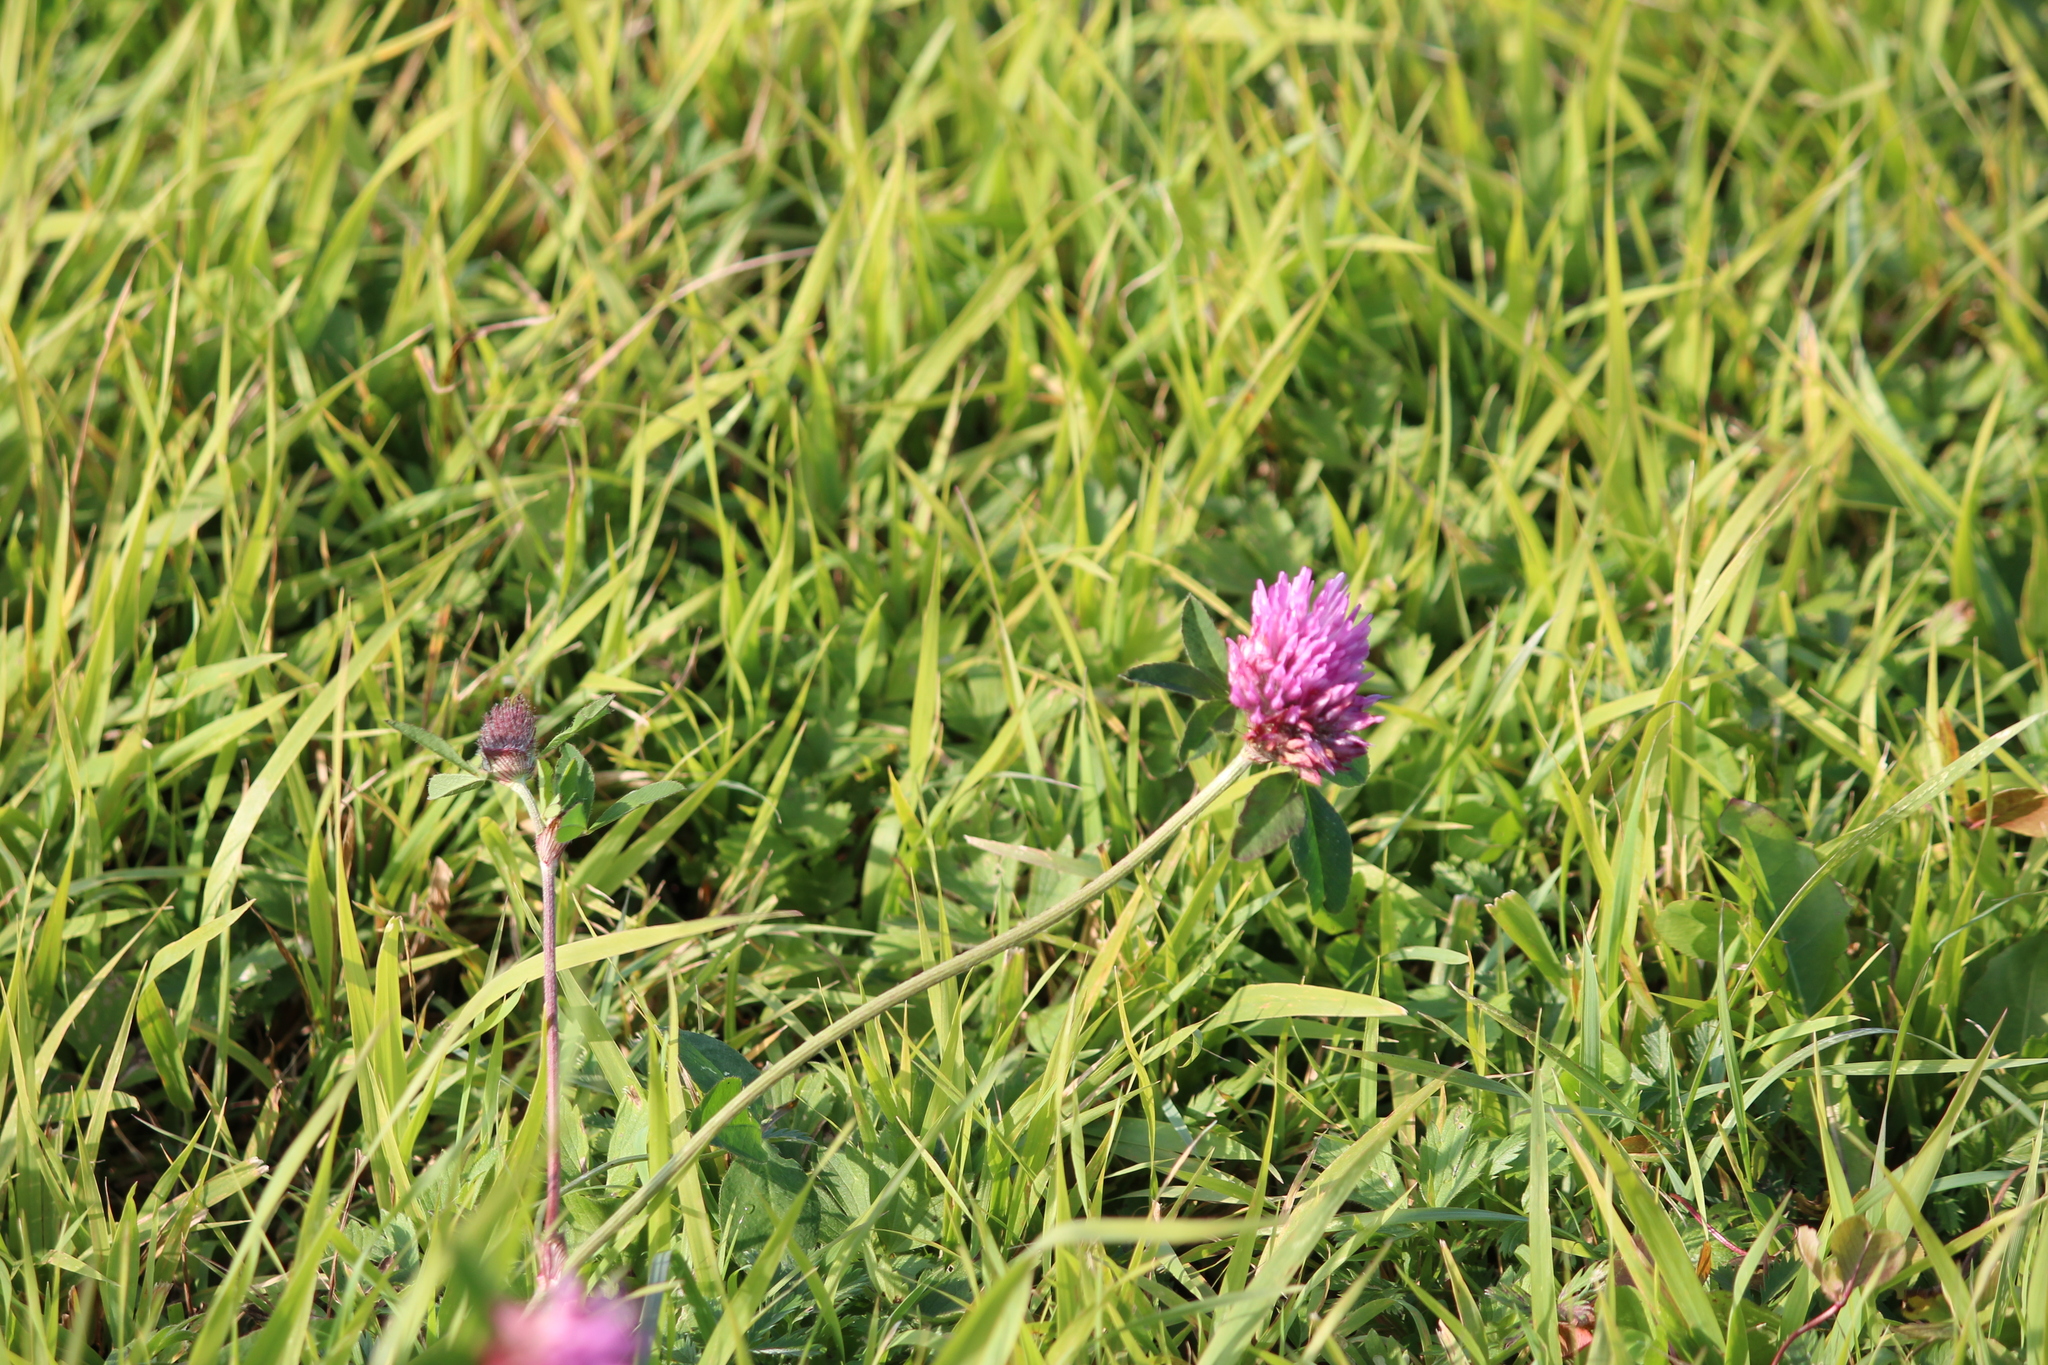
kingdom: Plantae
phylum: Tracheophyta
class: Magnoliopsida
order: Fabales
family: Fabaceae
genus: Trifolium
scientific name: Trifolium pratense
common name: Red clover
